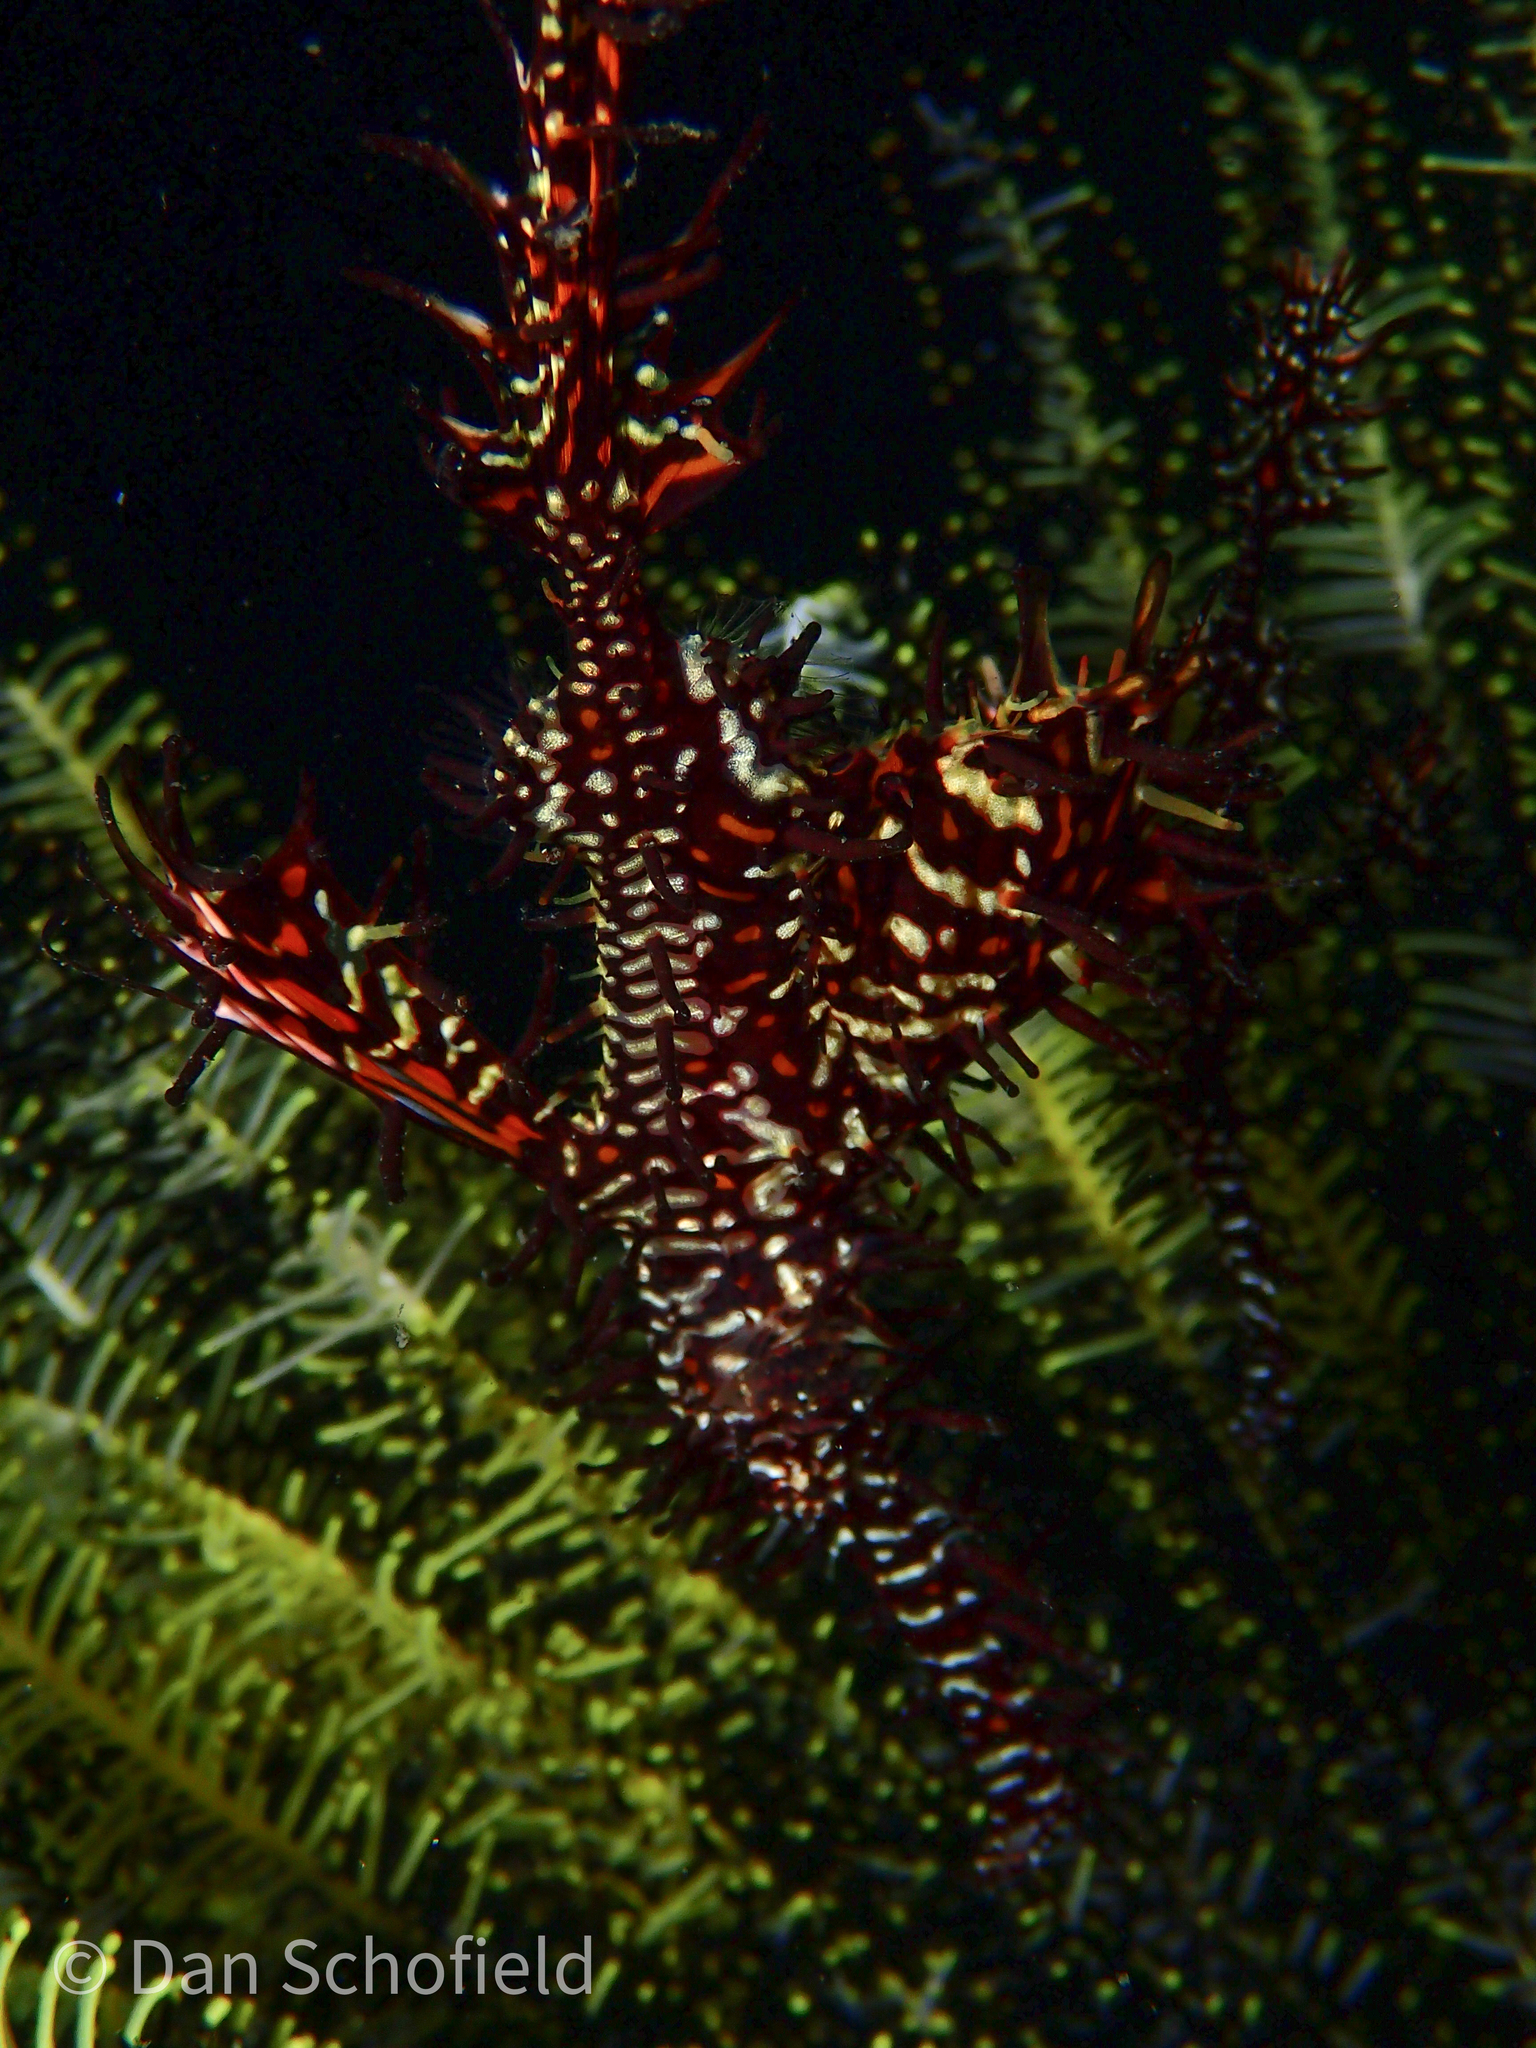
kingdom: Animalia
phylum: Chordata
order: Syngnathiformes
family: Solenostomidae
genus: Solenostomus
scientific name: Solenostomus paradoxus
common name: Ghost pipefish
